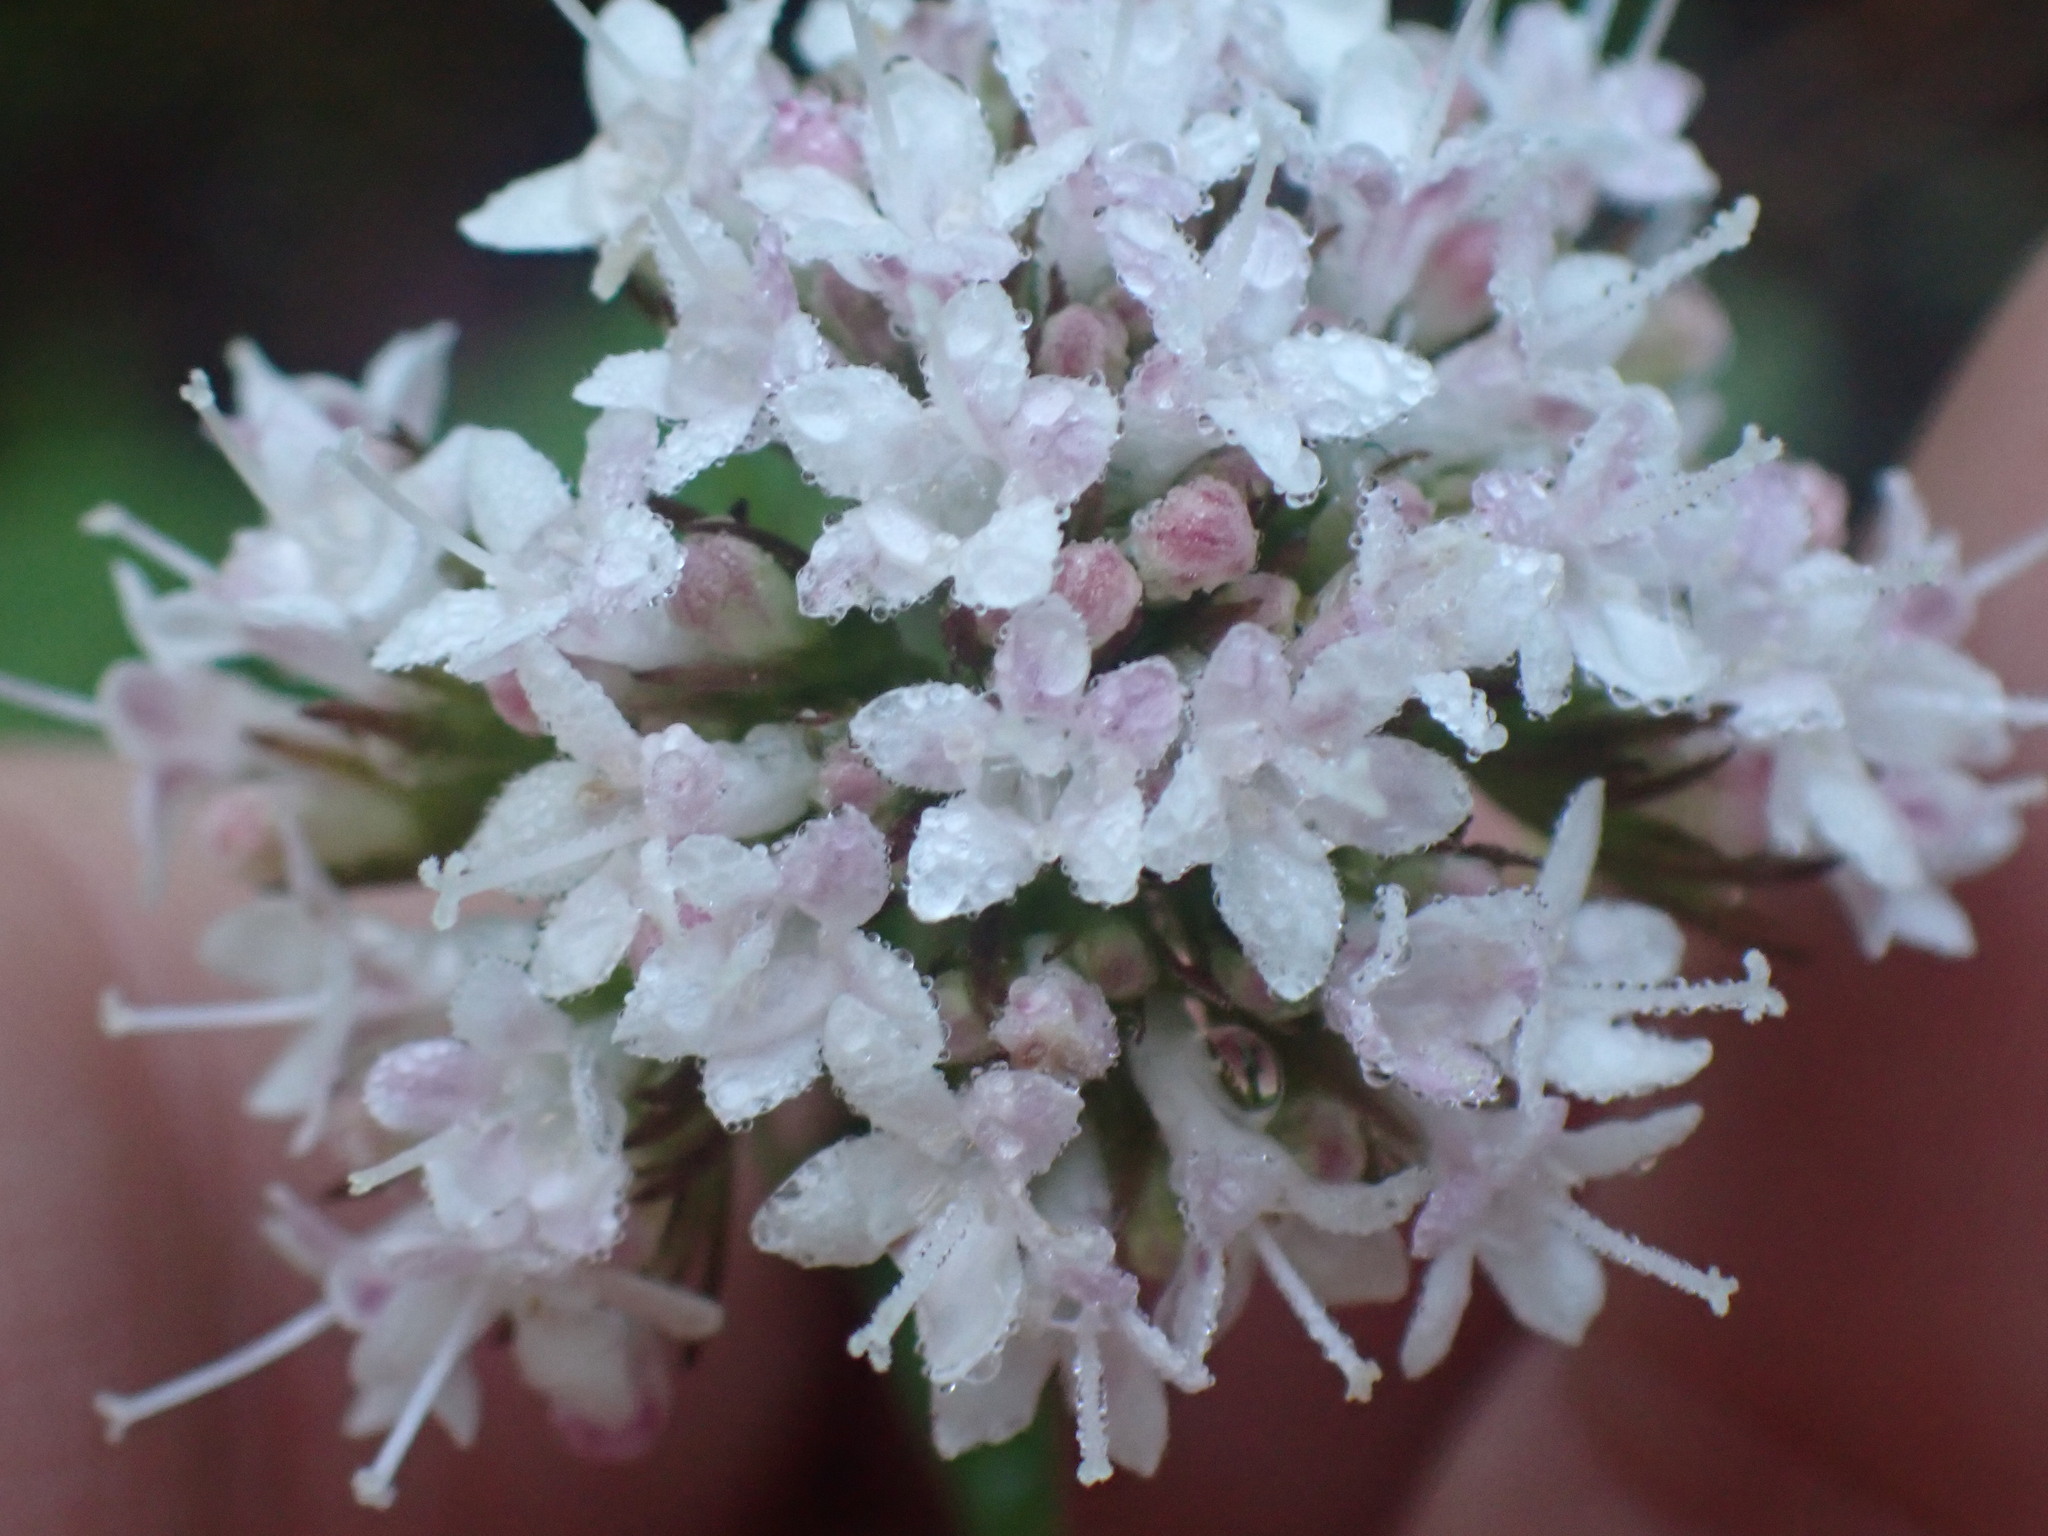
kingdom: Plantae
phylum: Tracheophyta
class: Magnoliopsida
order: Dipsacales
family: Caprifoliaceae
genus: Valeriana
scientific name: Valeriana sitchensis
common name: Pacific valerian
